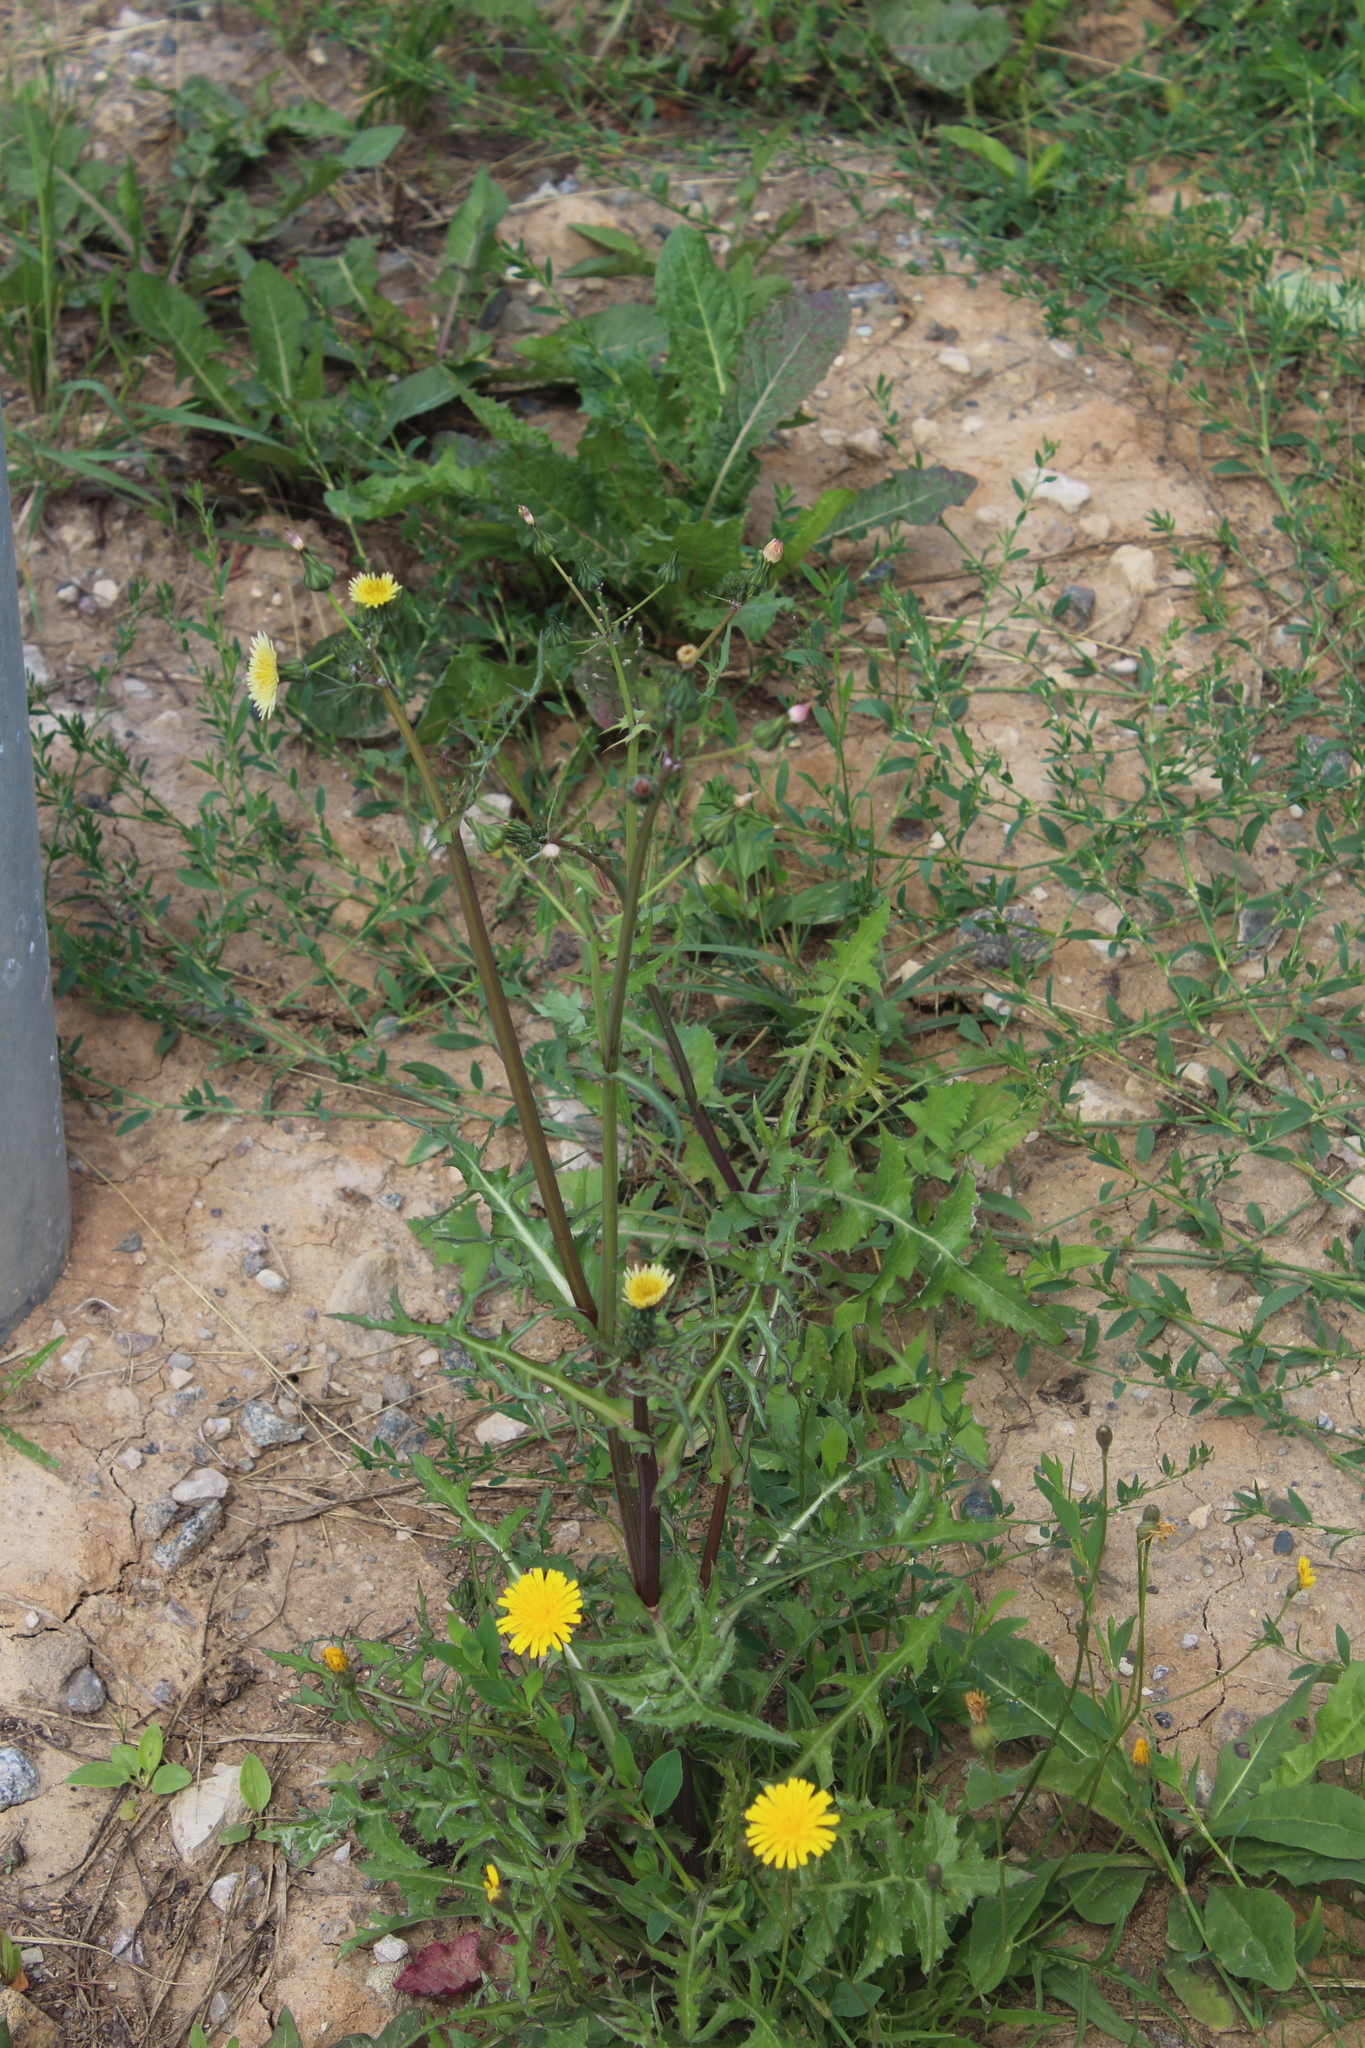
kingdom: Plantae
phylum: Tracheophyta
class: Magnoliopsida
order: Asterales
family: Asteraceae
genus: Sonchus
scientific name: Sonchus oleraceus
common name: Common sowthistle
